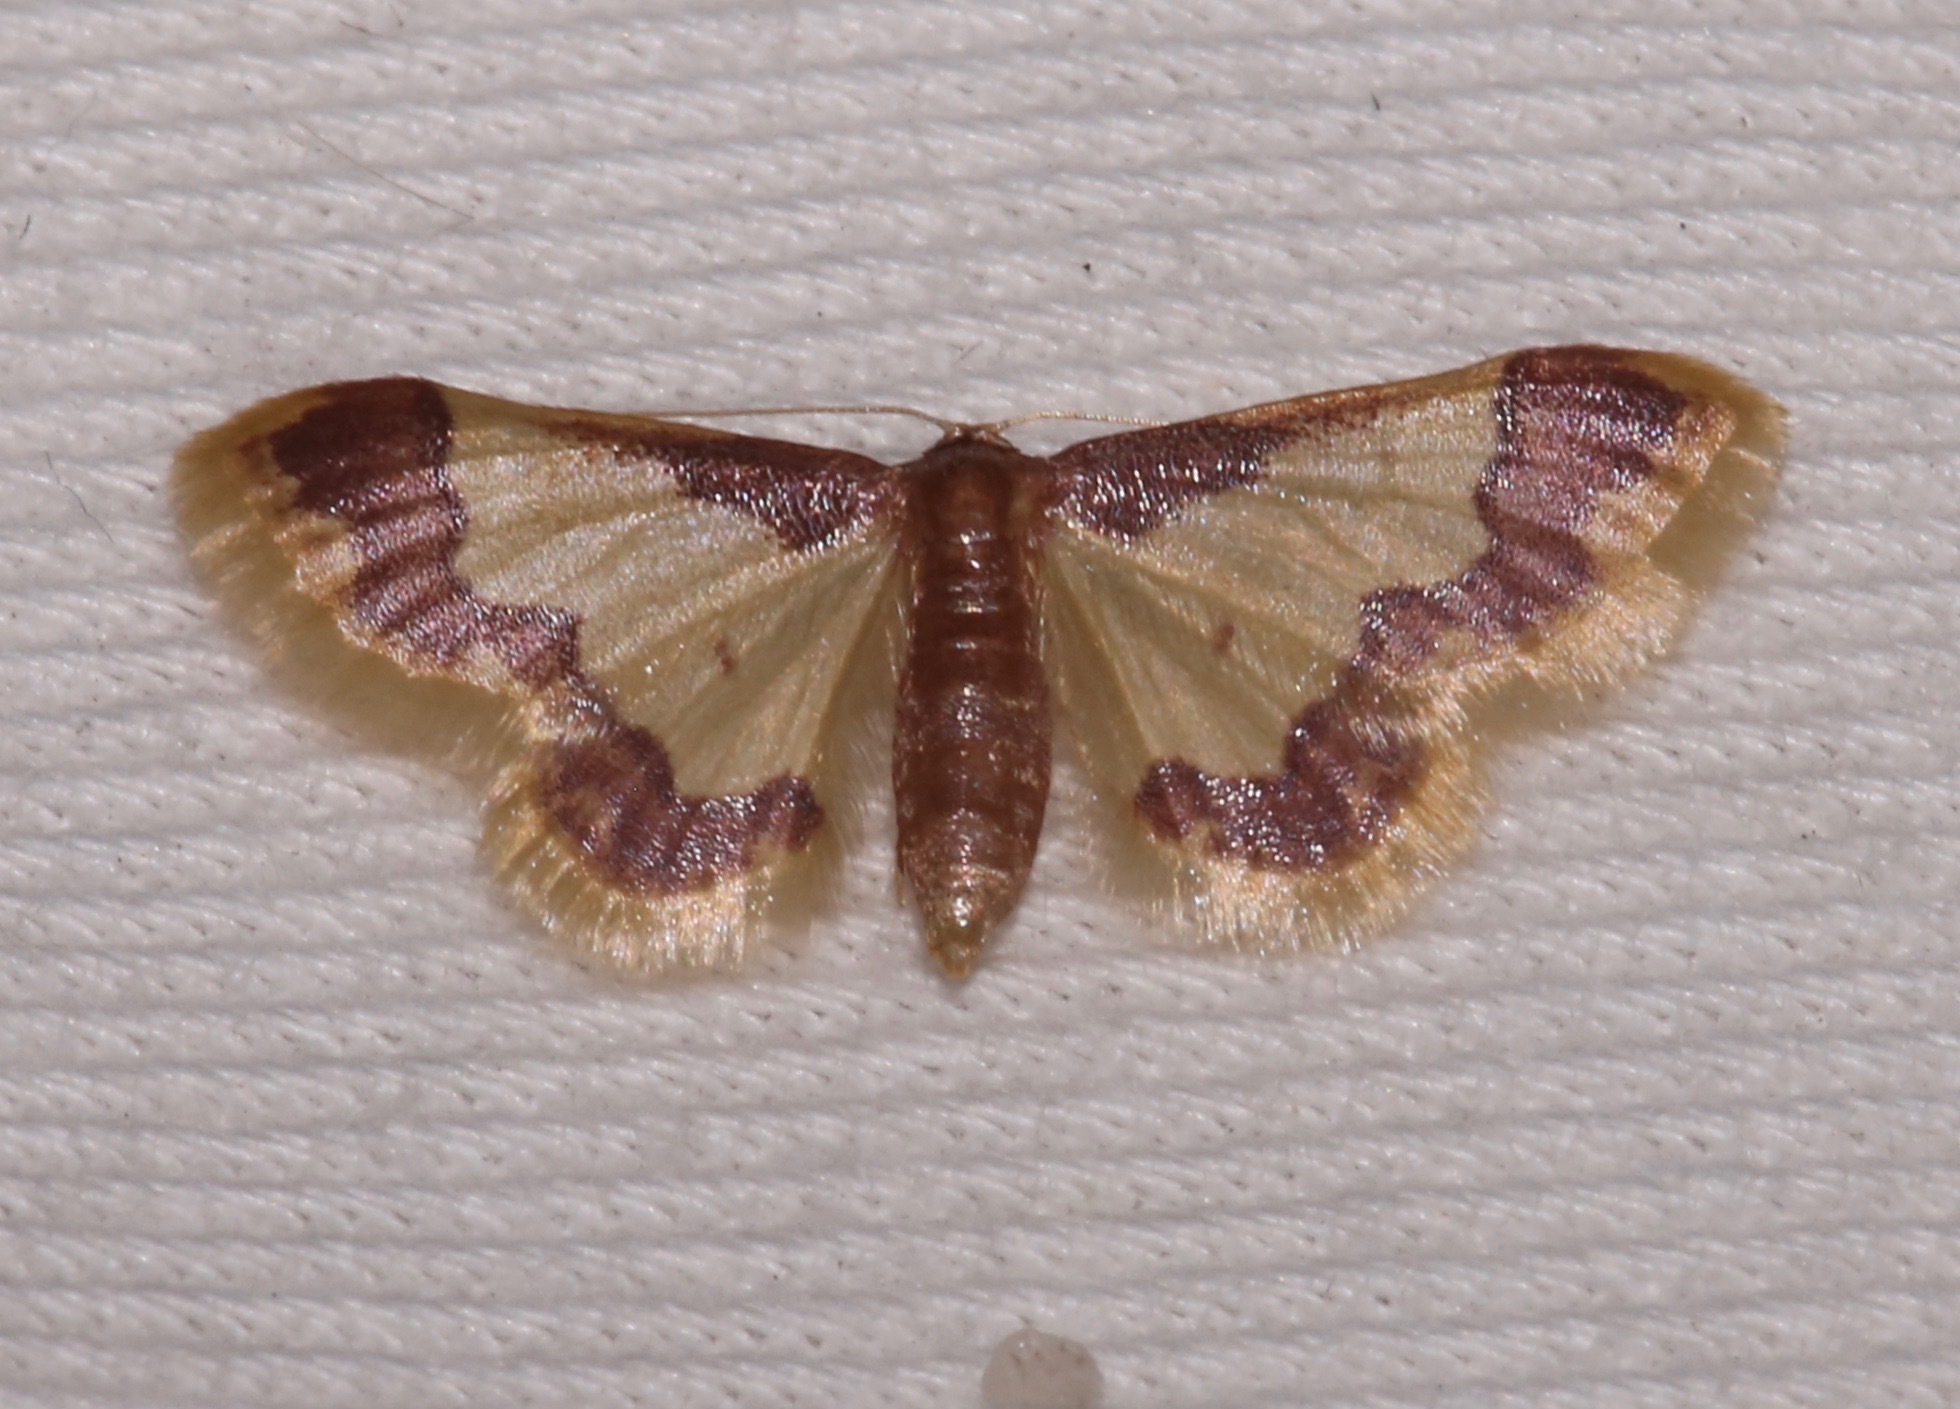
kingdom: Animalia
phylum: Arthropoda
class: Insecta
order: Lepidoptera
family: Geometridae
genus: Idaea
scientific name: Idaea basinta
